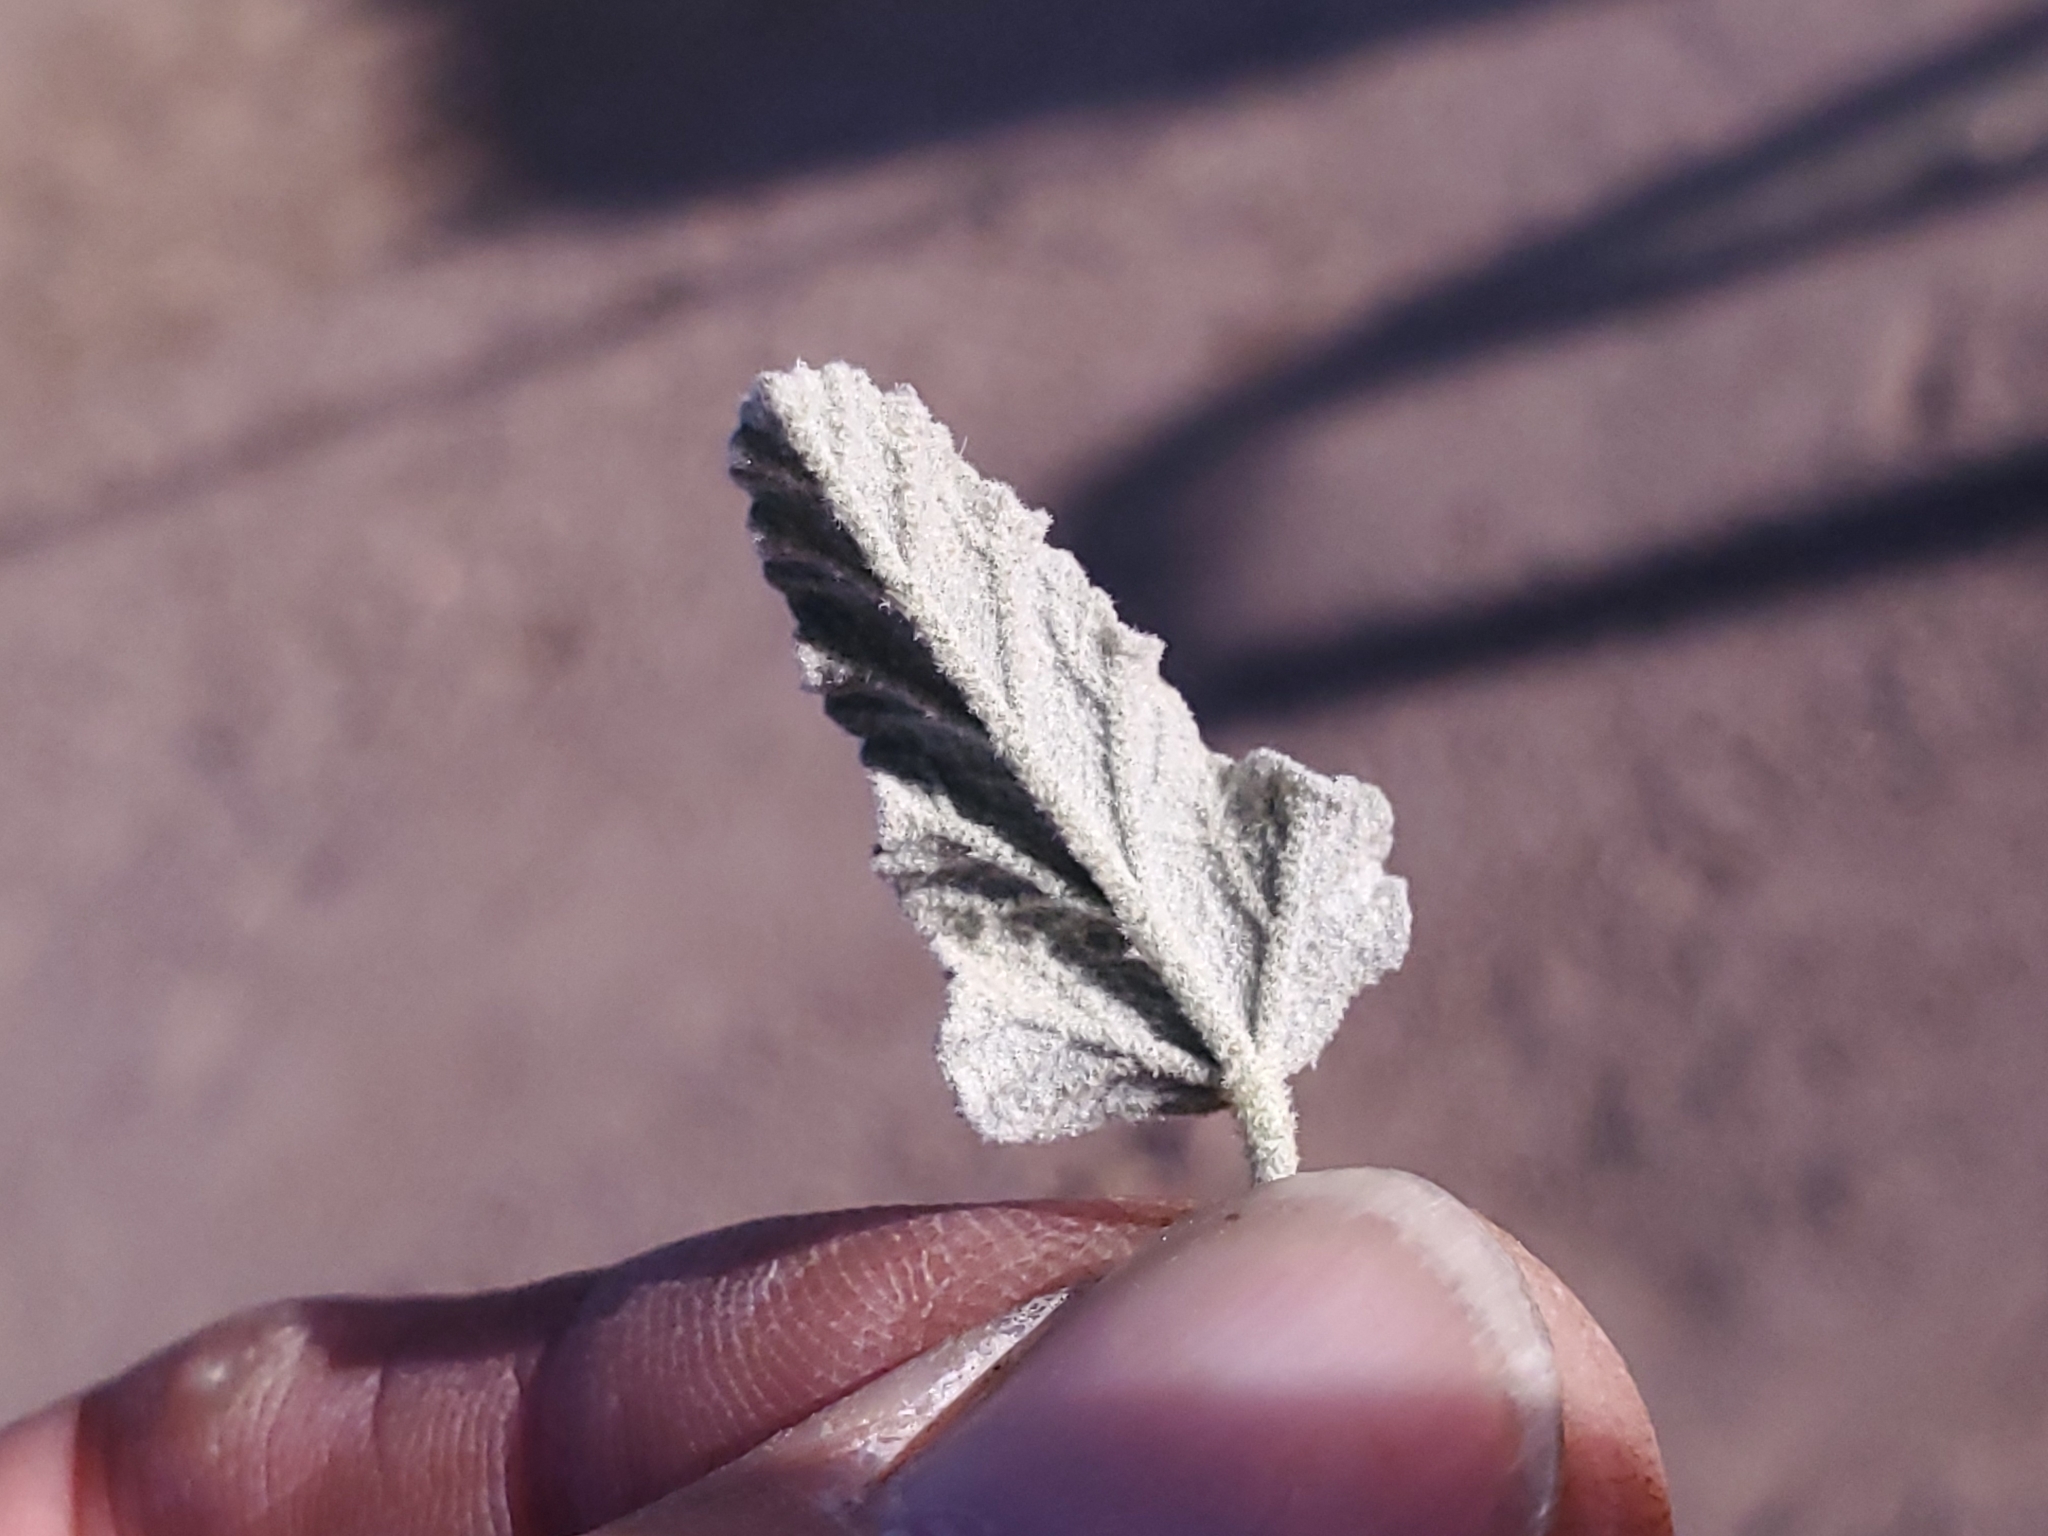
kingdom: Plantae
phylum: Tracheophyta
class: Magnoliopsida
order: Malvales
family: Malvaceae
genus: Sphaeralcea
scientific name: Sphaeralcea hastulata
